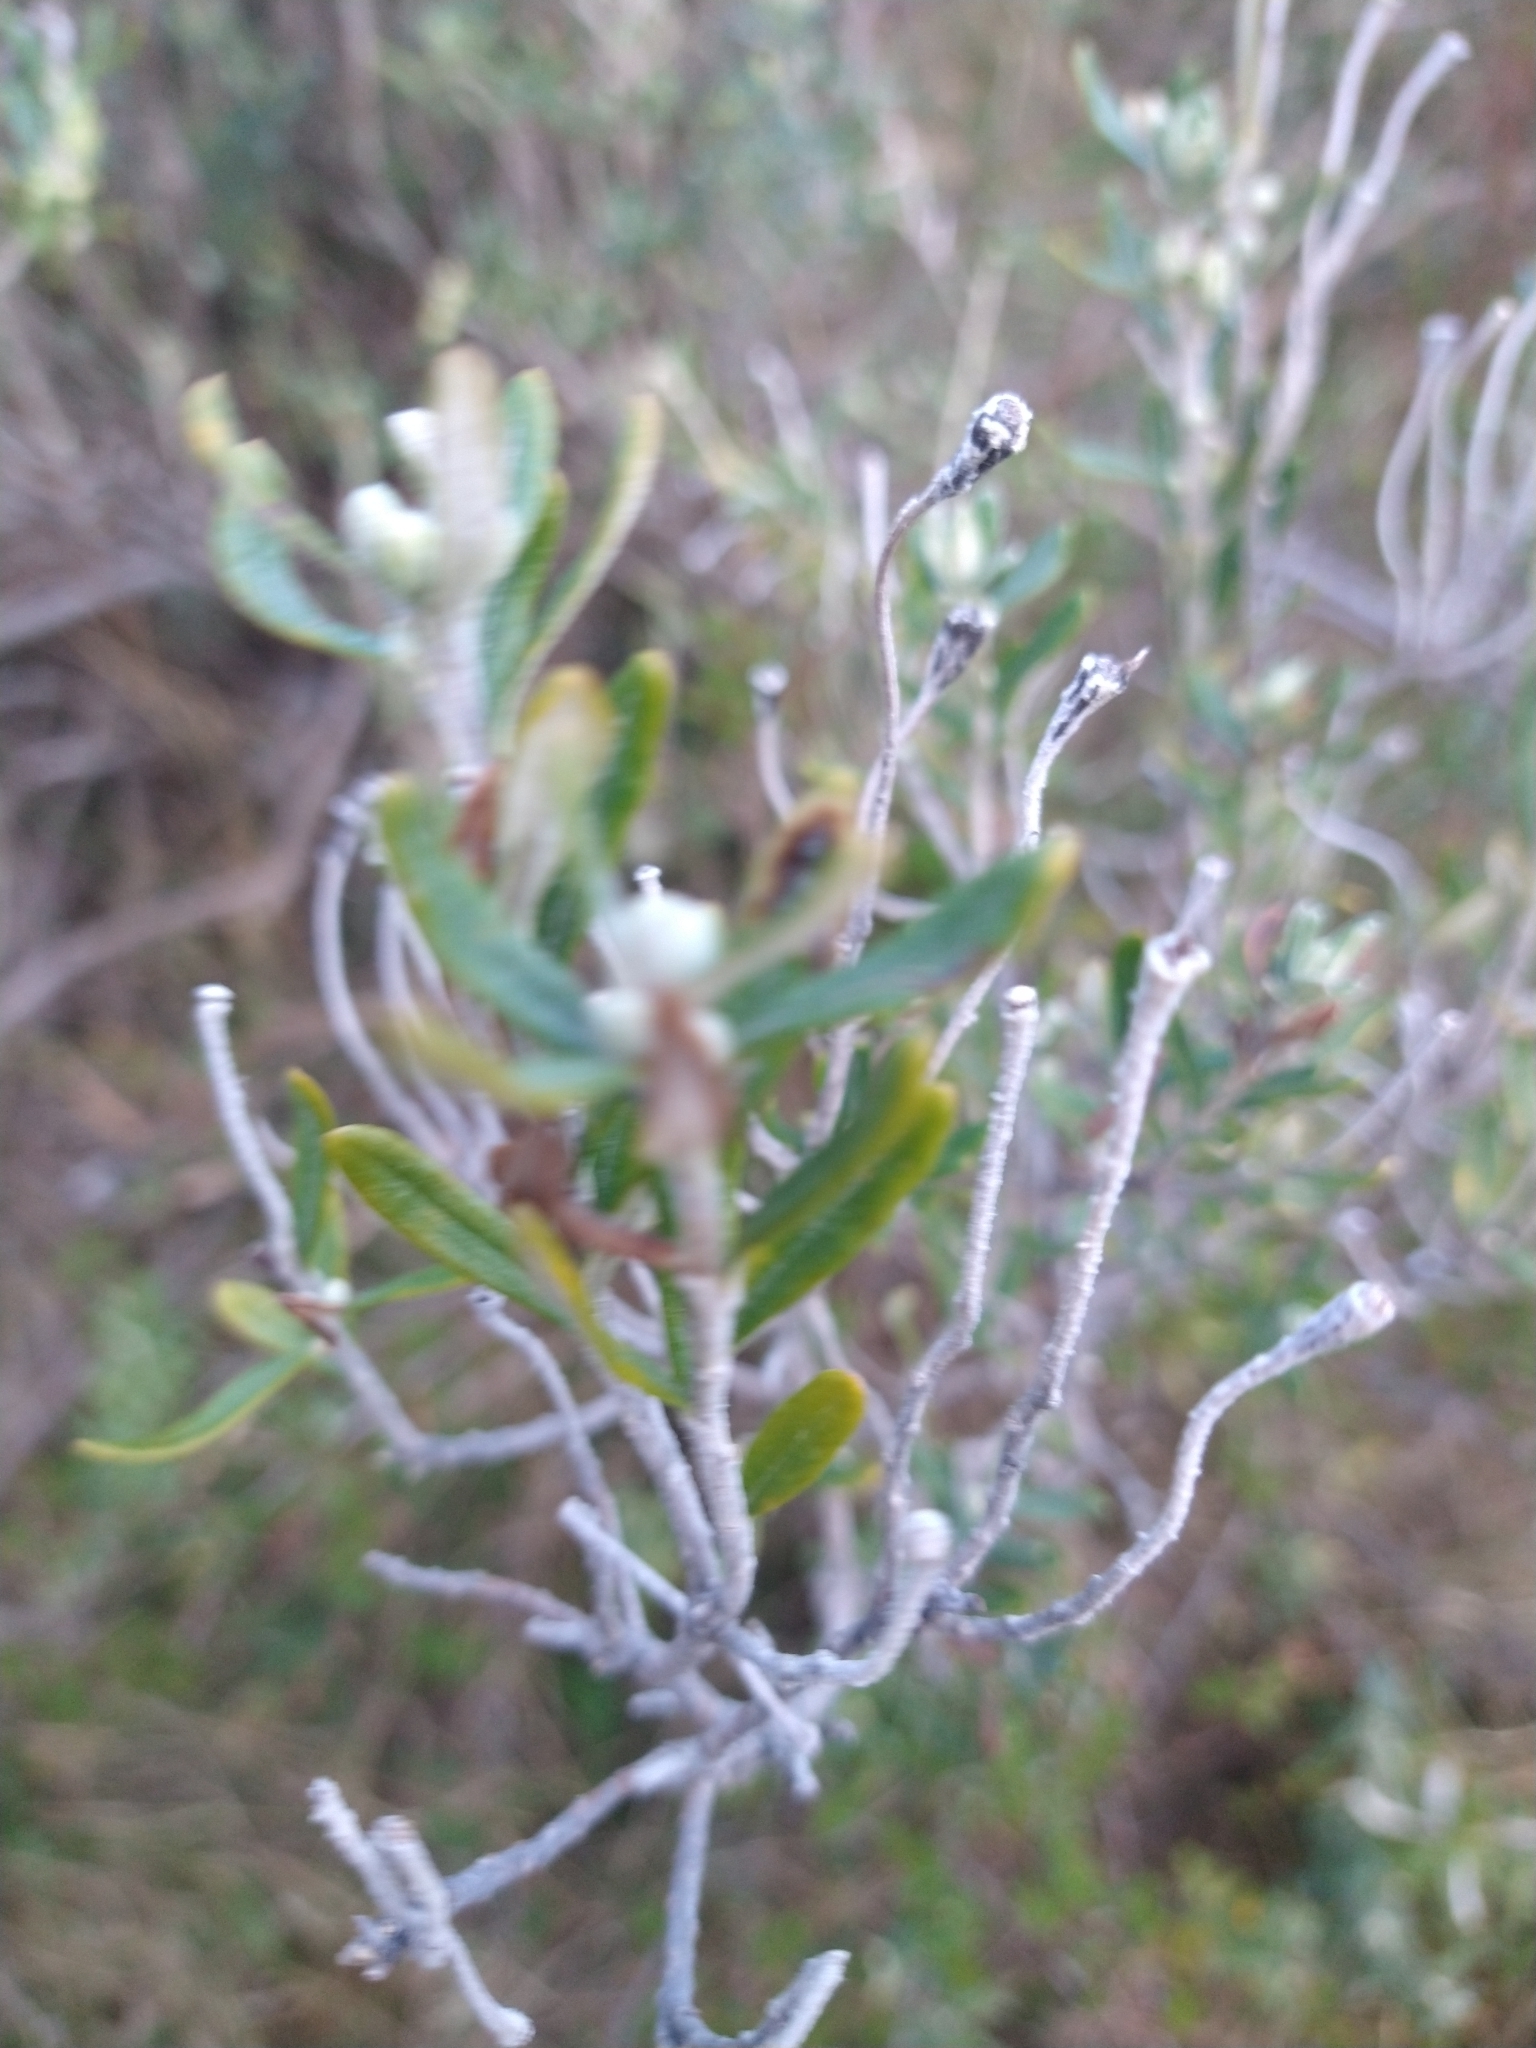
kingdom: Plantae
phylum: Tracheophyta
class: Magnoliopsida
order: Asterales
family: Asteraceae
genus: Chiliotrichum
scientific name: Chiliotrichum diffusum
